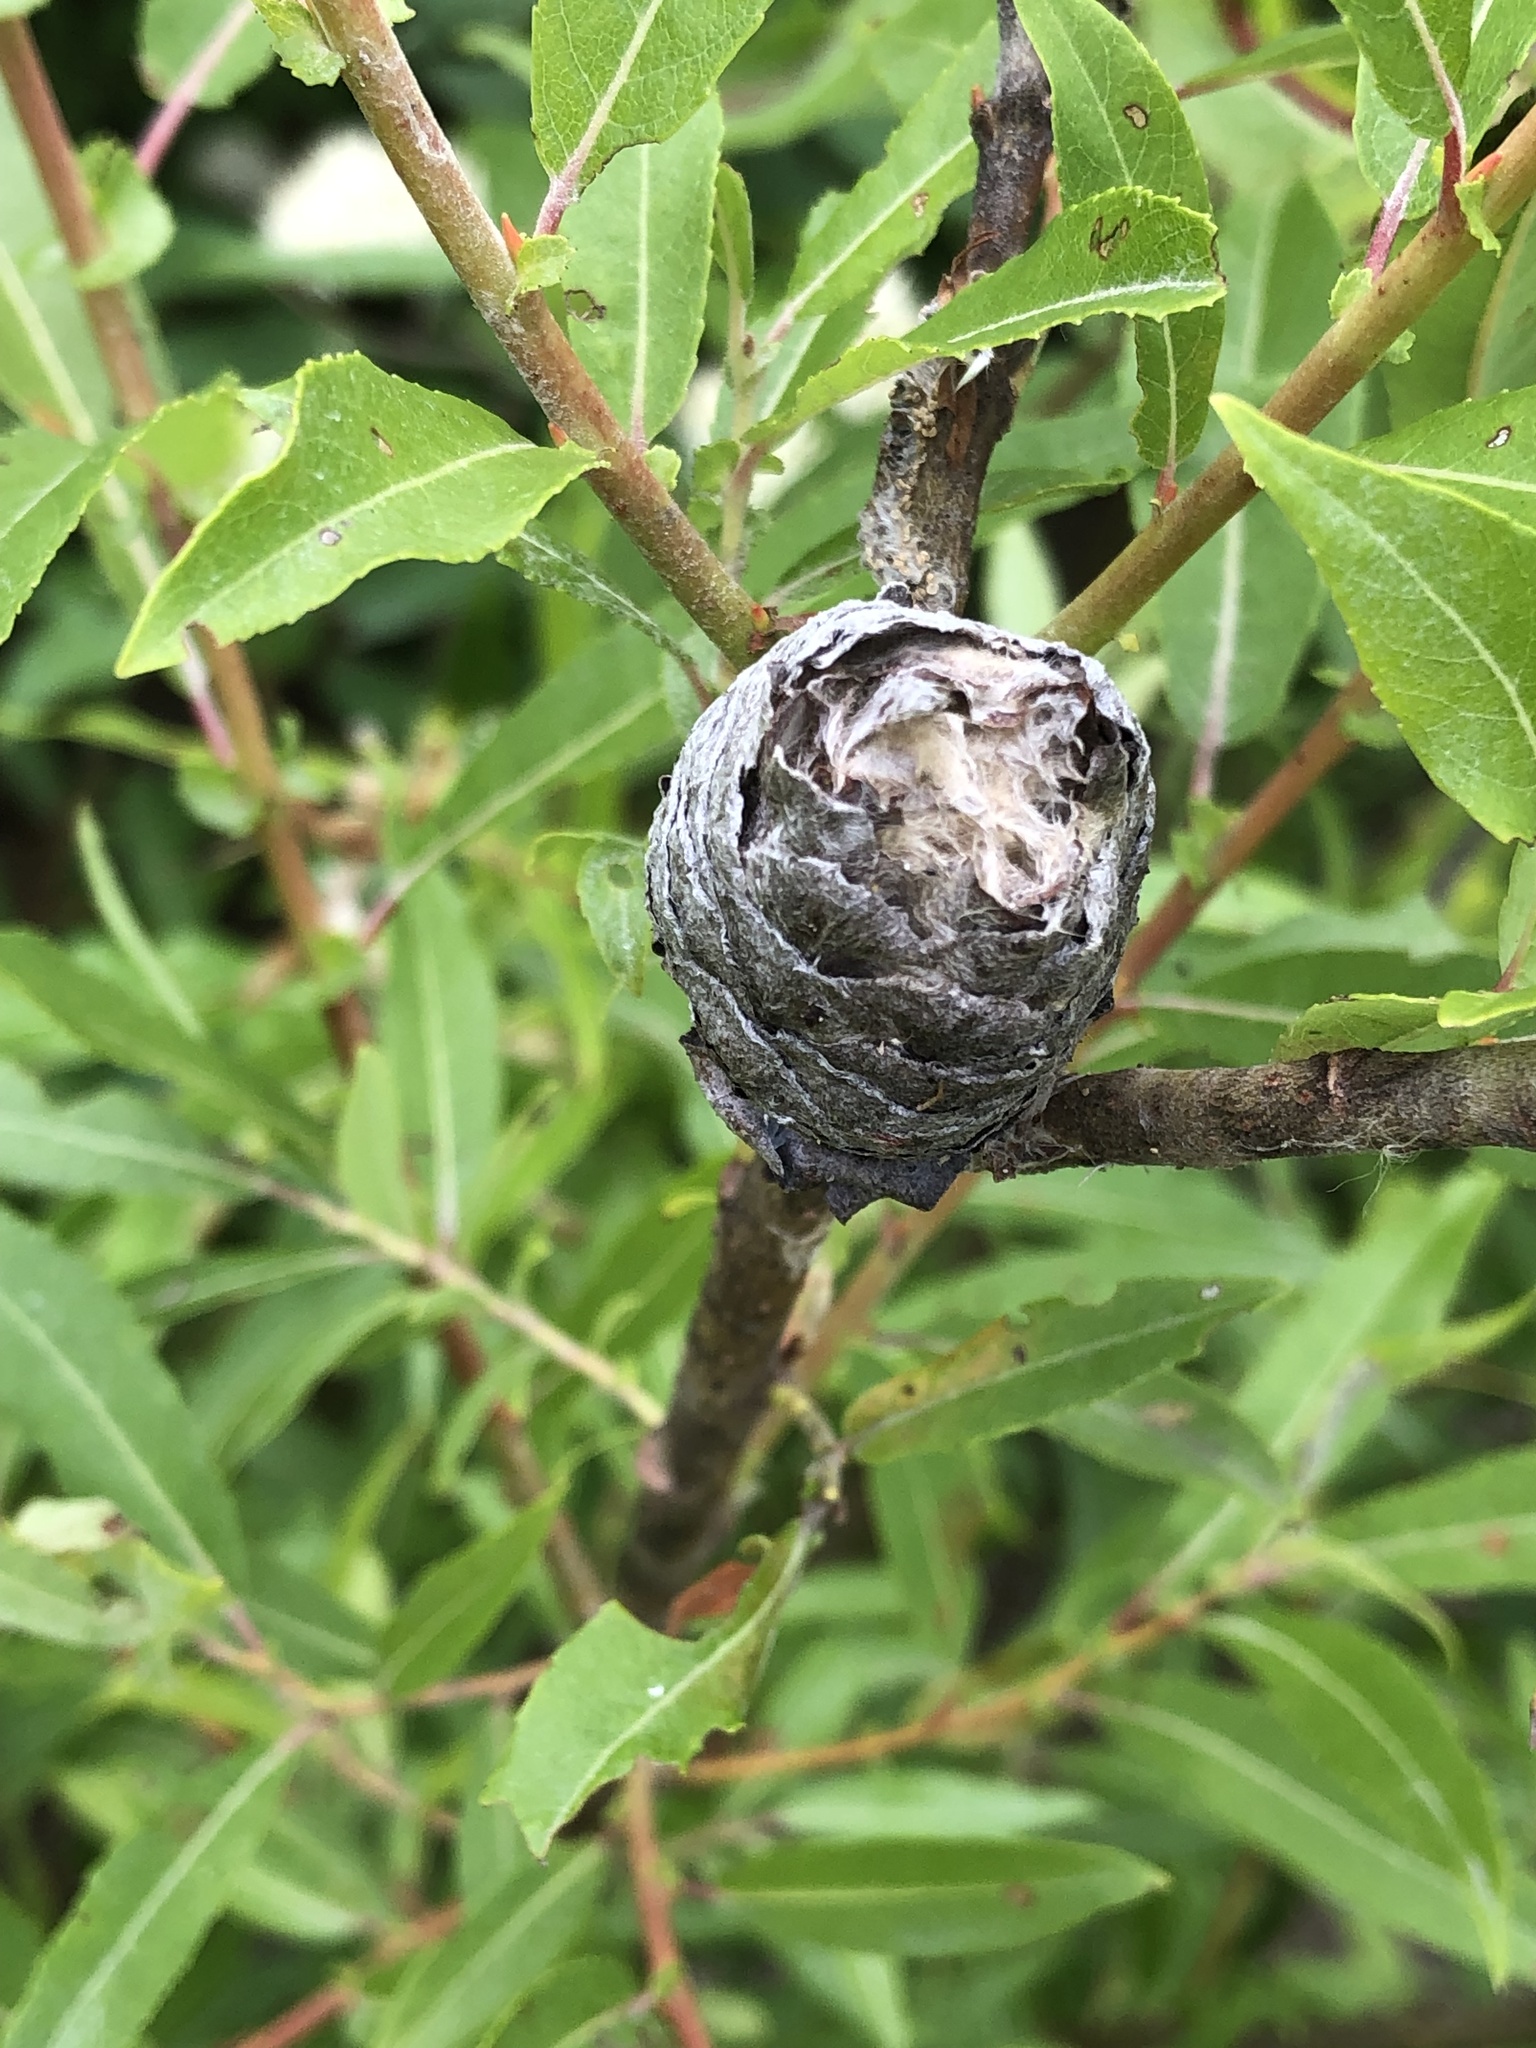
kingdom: Animalia
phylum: Arthropoda
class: Insecta
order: Diptera
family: Cecidomyiidae
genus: Rabdophaga
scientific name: Rabdophaga strobiloides
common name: Willow pinecone gall midge
